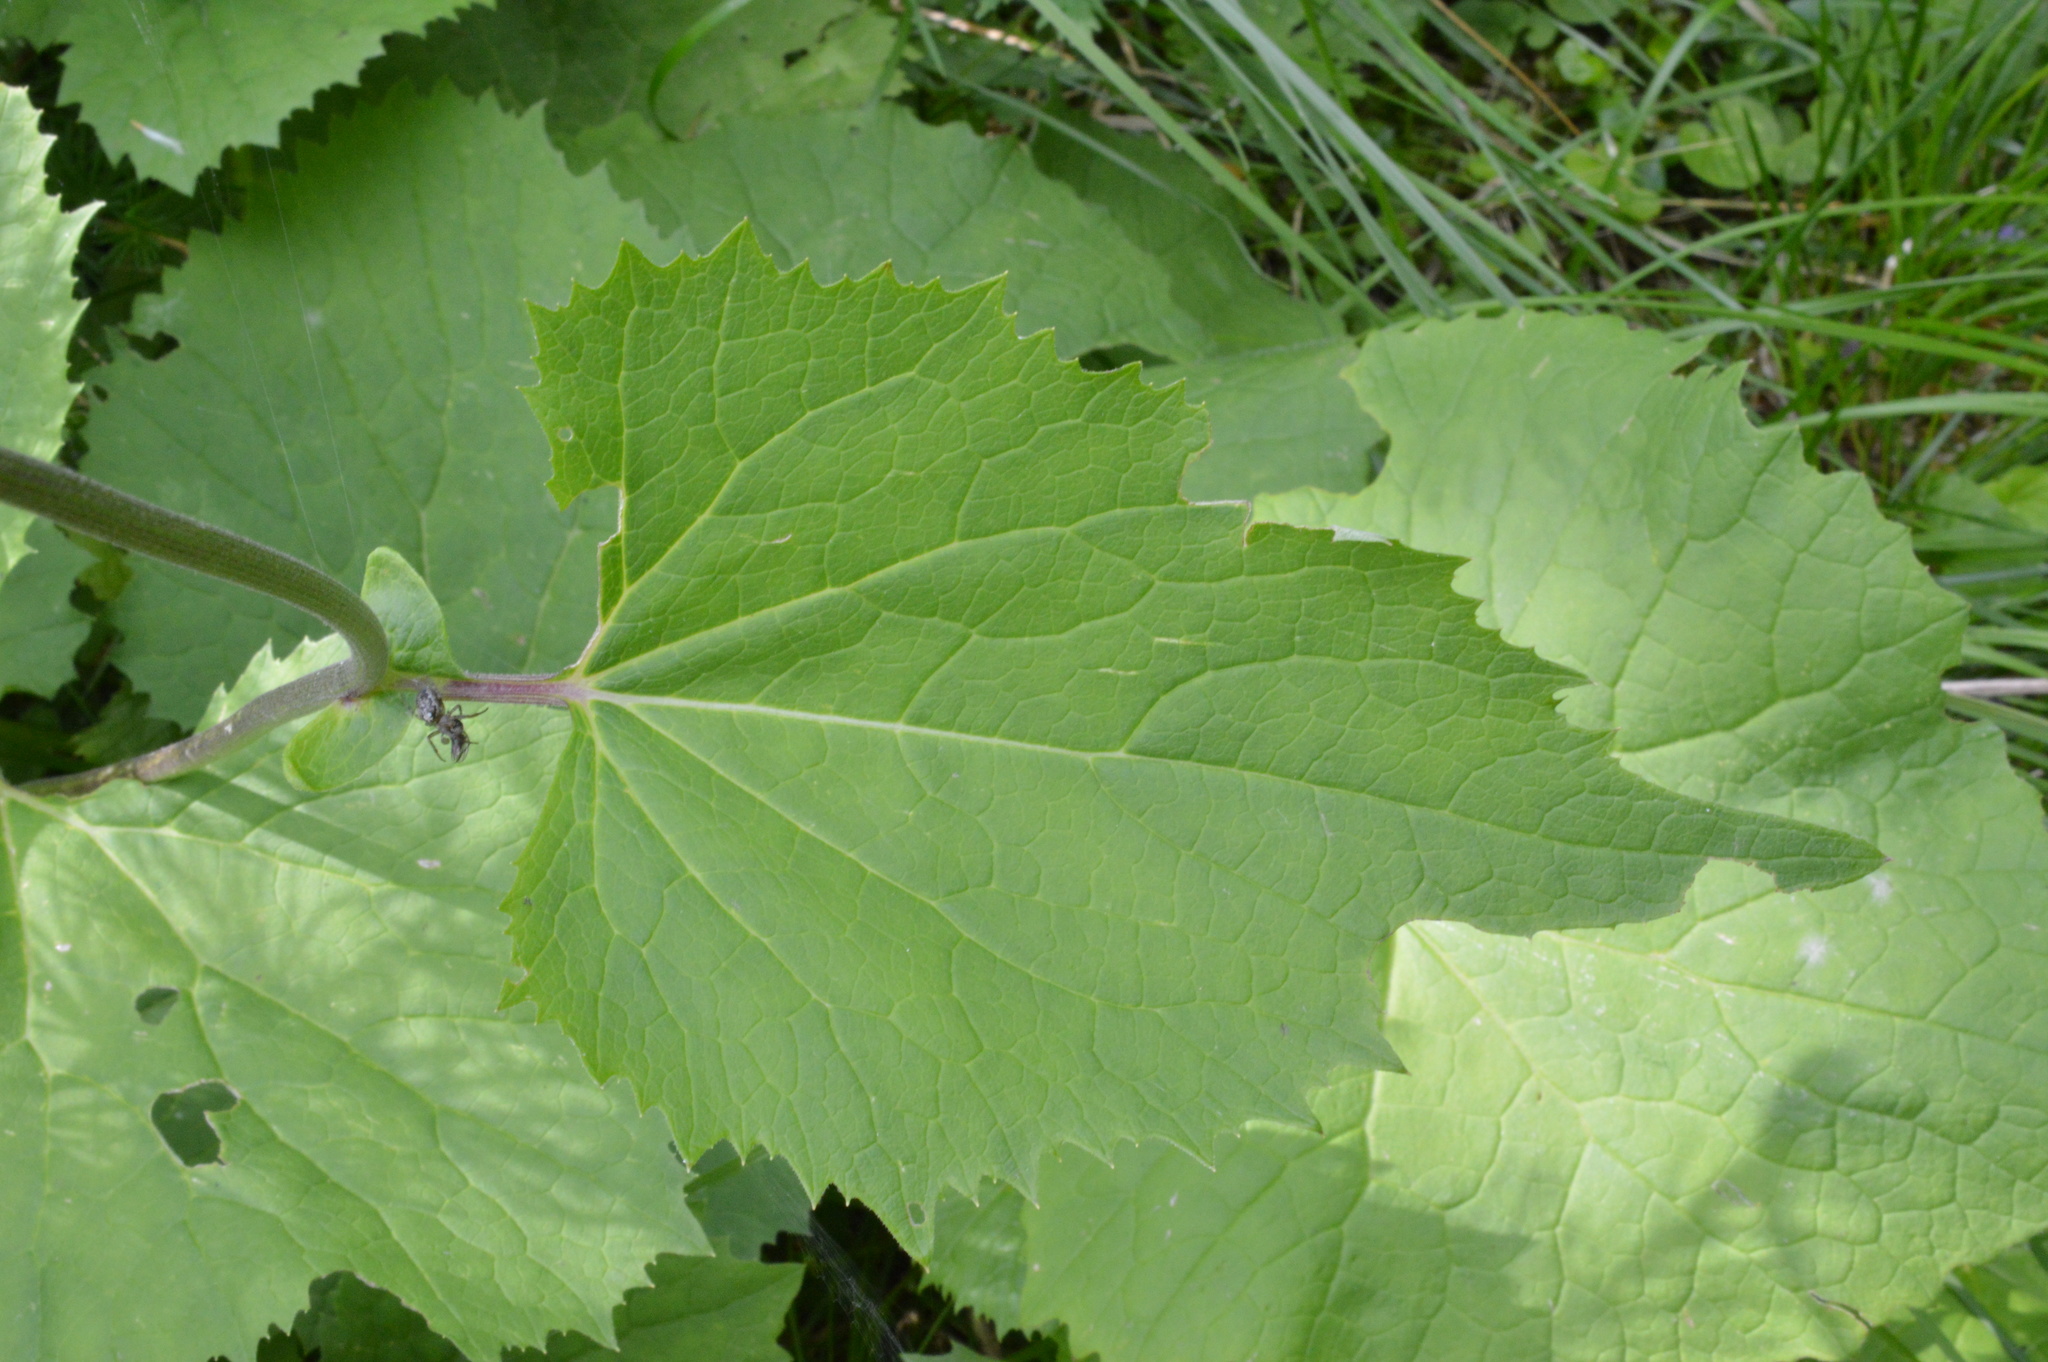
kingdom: Plantae
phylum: Tracheophyta
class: Magnoliopsida
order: Asterales
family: Asteraceae
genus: Adenostyles
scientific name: Adenostyles alliariae
